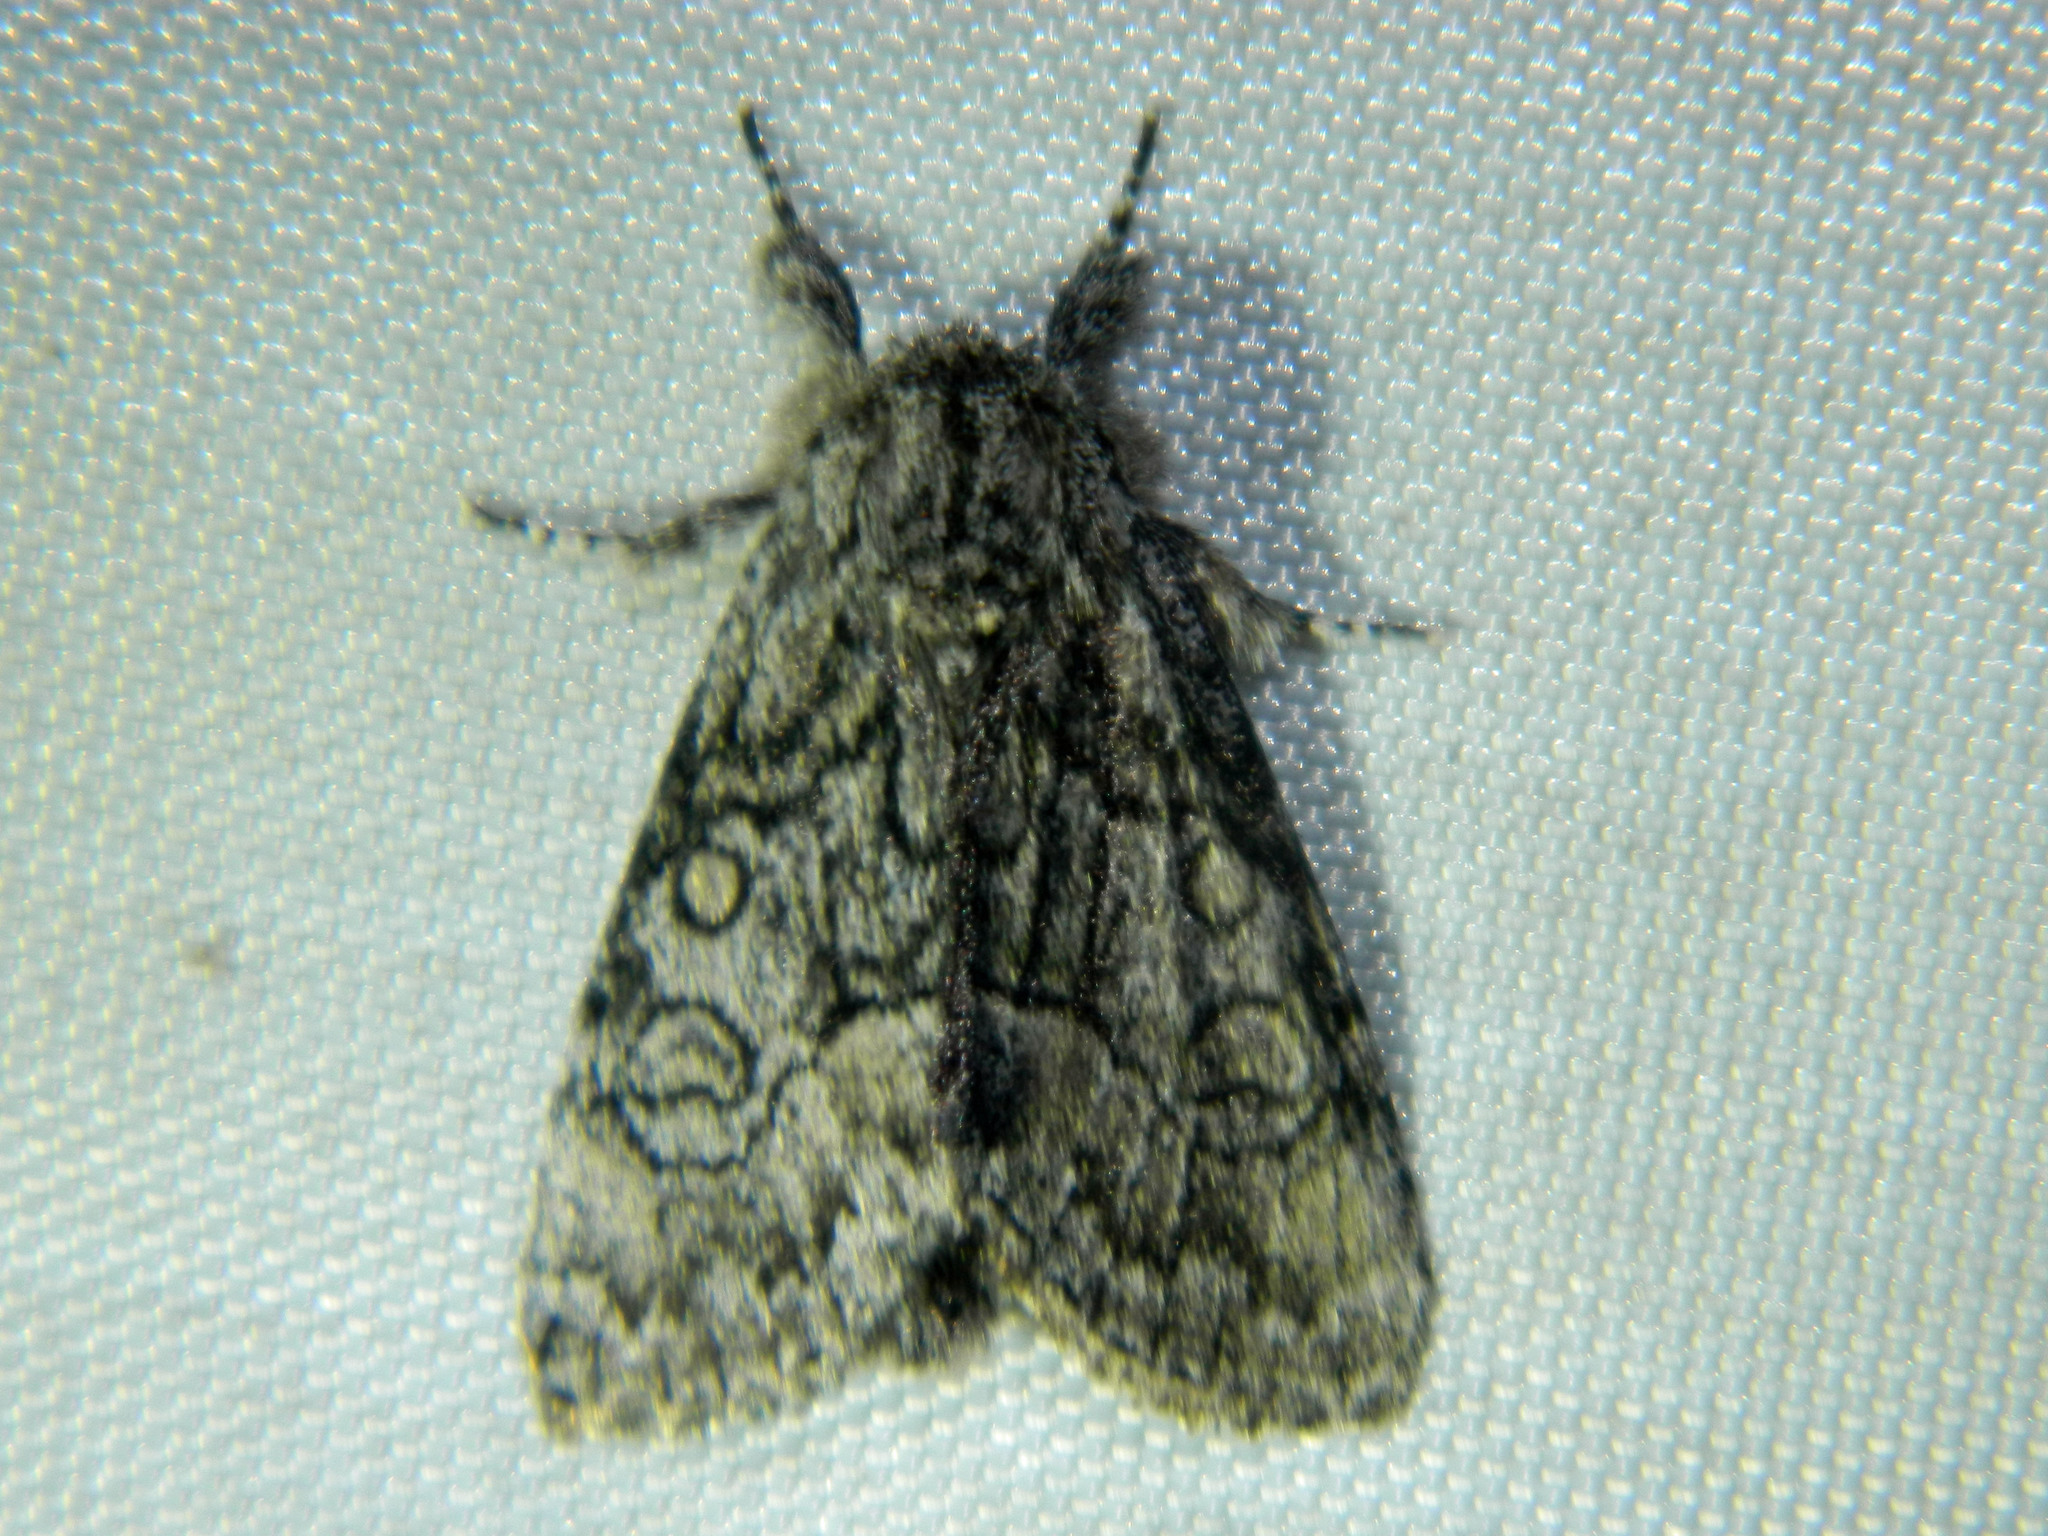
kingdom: Animalia
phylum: Arthropoda
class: Insecta
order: Lepidoptera
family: Noctuidae
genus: Raphia
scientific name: Raphia frater
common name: Brother
